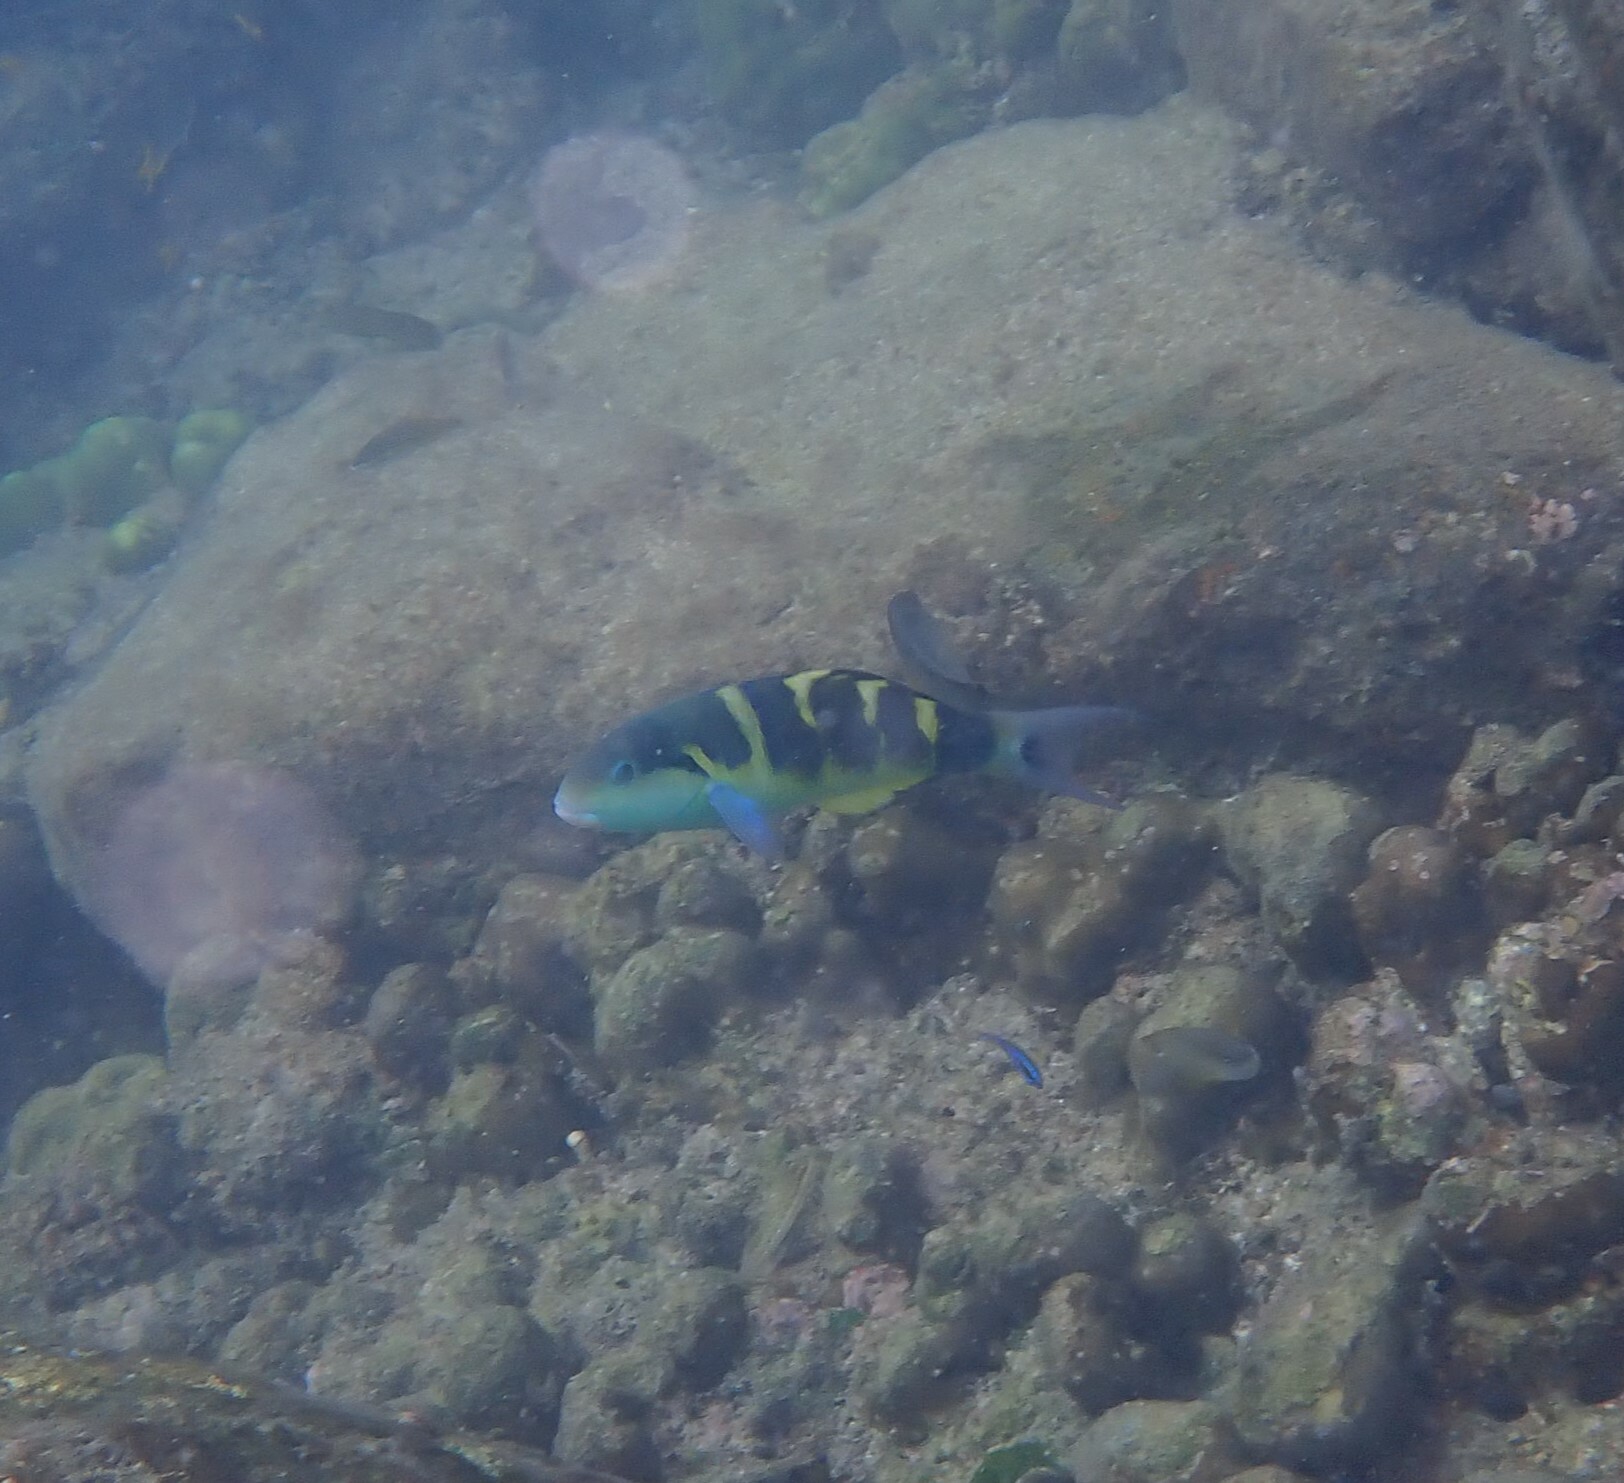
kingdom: Animalia
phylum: Chordata
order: Perciformes
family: Labridae
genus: Thalassoma
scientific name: Thalassoma jansenii
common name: Jansen's wrasse
